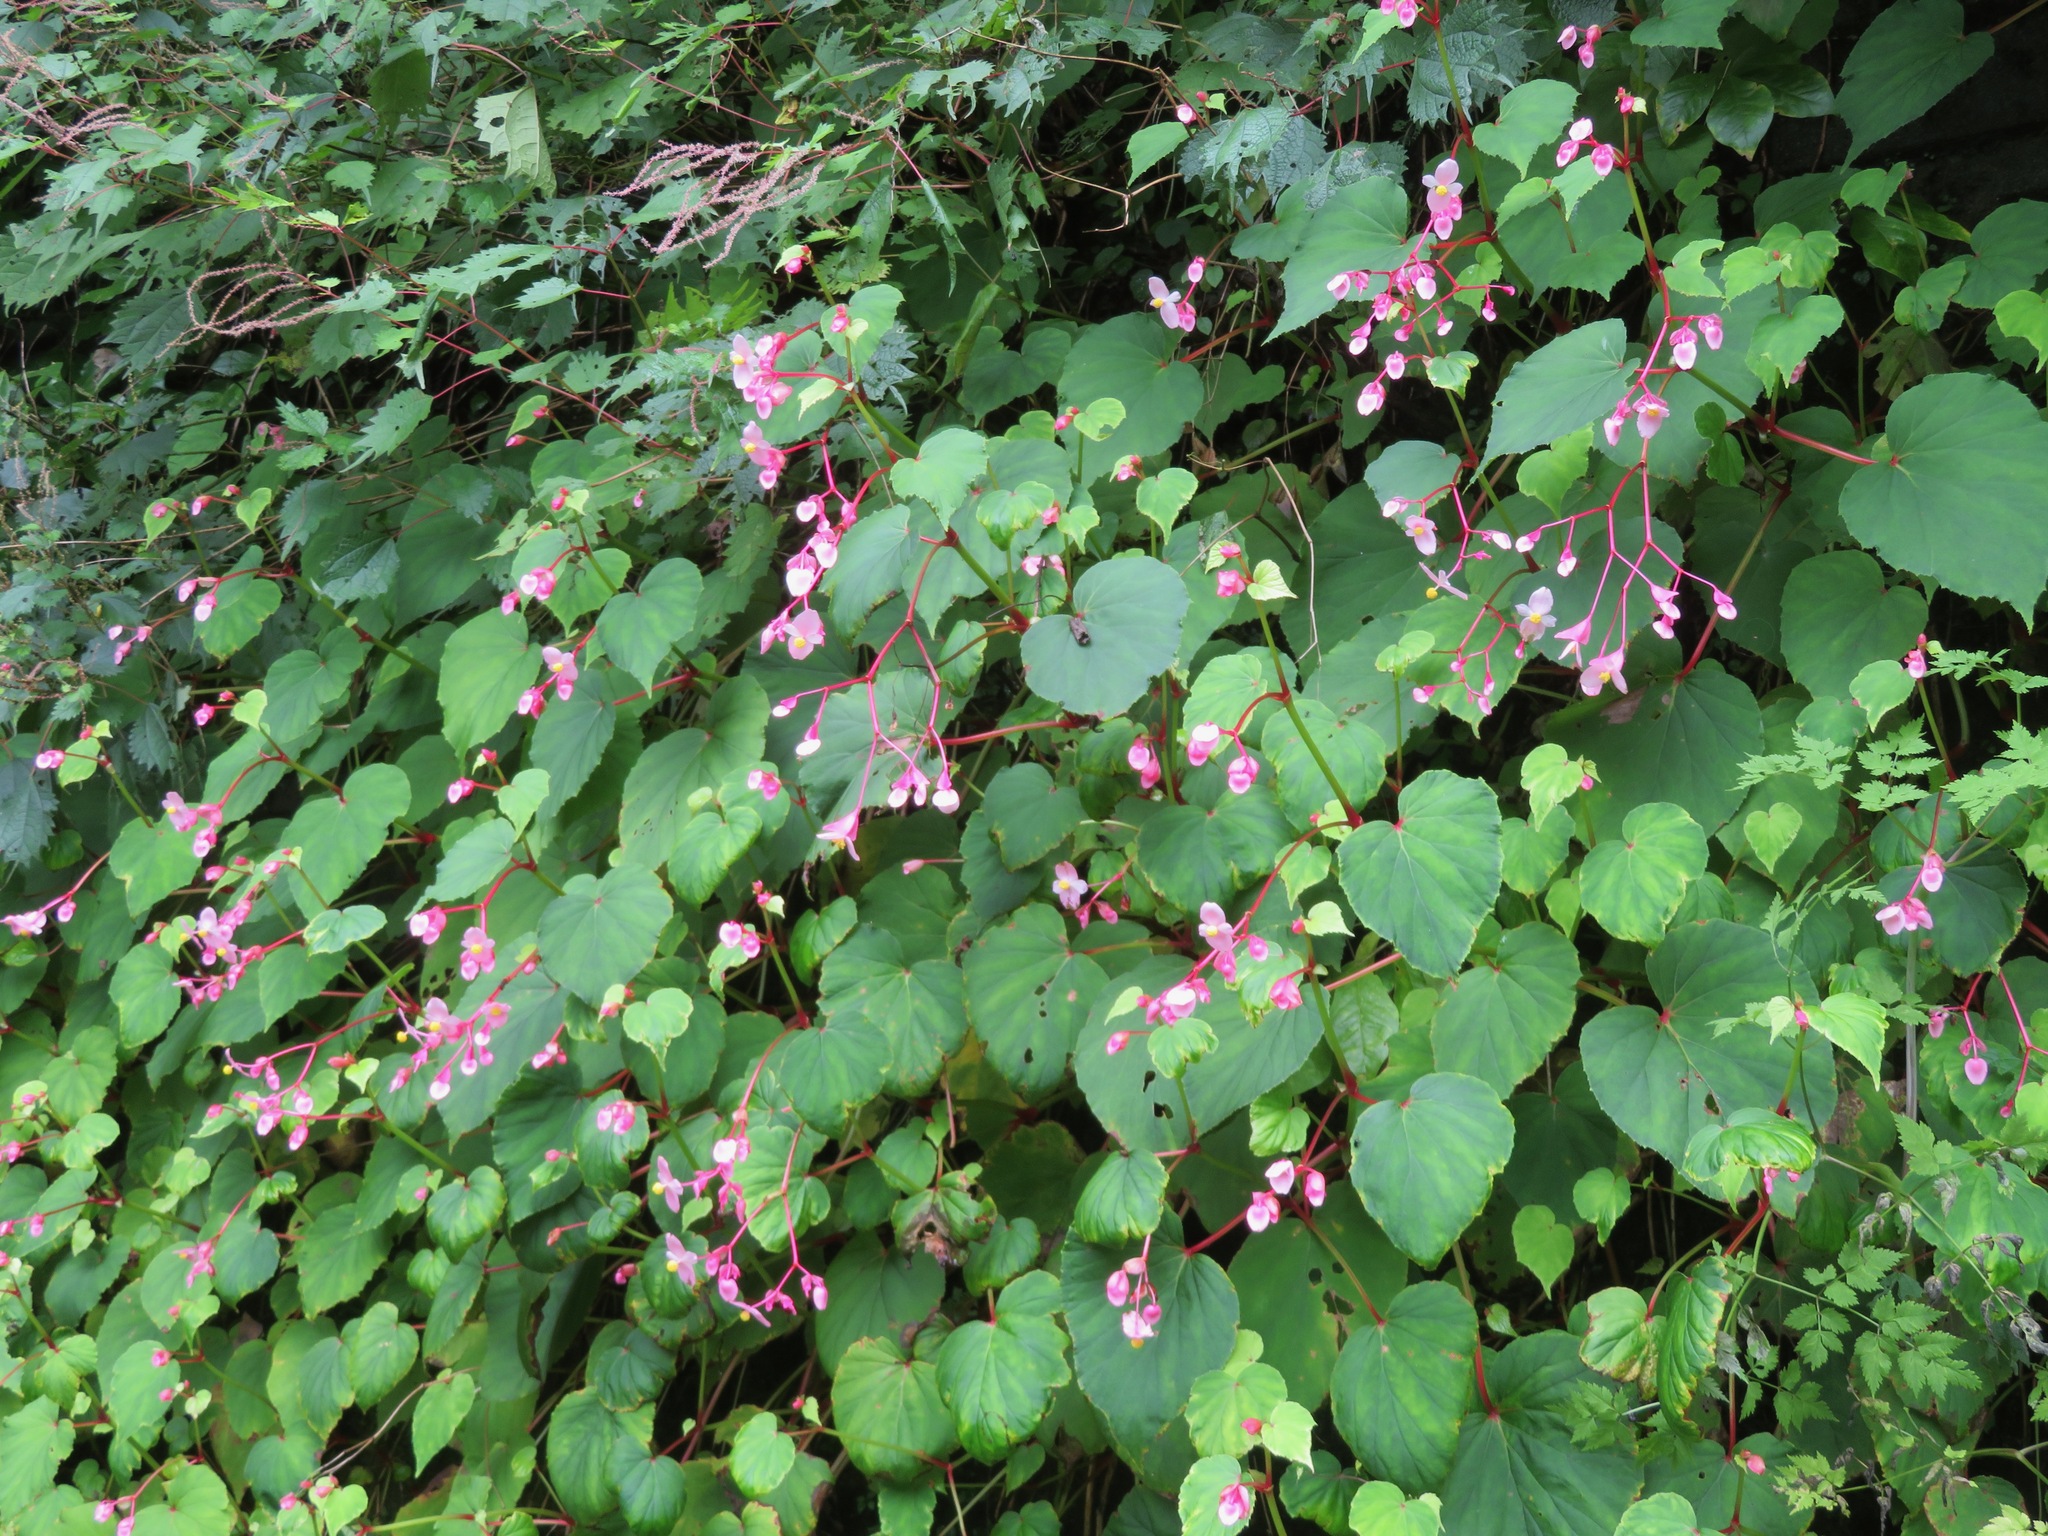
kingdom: Plantae
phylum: Tracheophyta
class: Magnoliopsida
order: Cucurbitales
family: Begoniaceae
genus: Begonia
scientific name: Begonia grandis
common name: Hardy begonia
